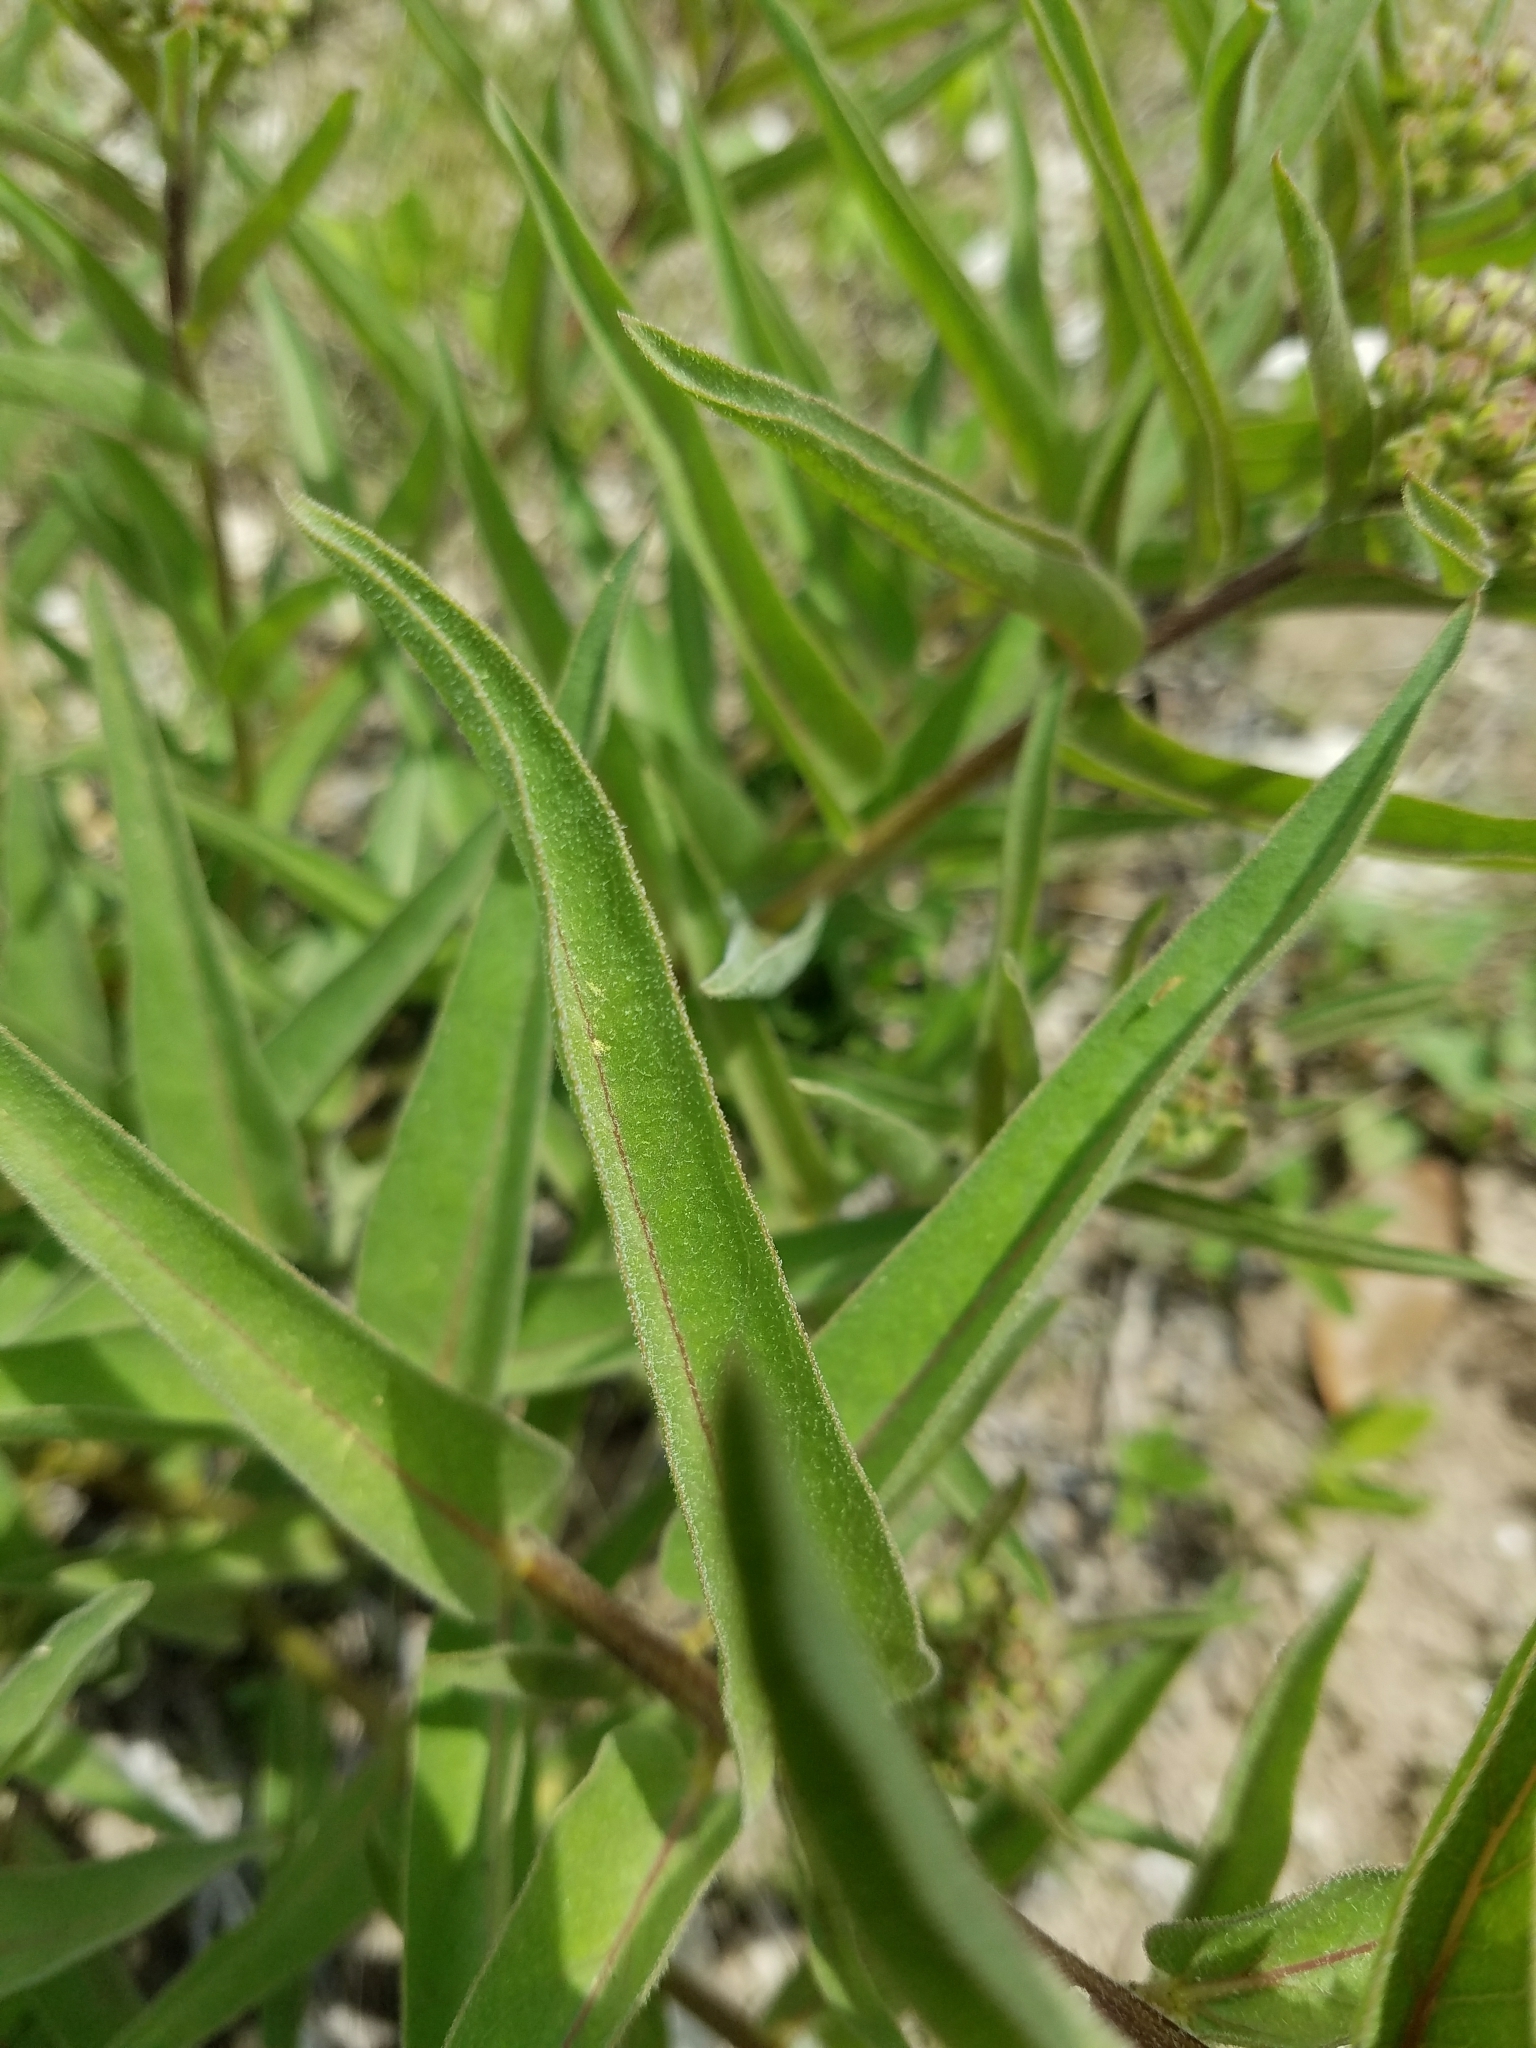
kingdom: Plantae
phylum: Tracheophyta
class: Magnoliopsida
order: Gentianales
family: Apocynaceae
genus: Asclepias
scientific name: Asclepias asperula
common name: Antelope horns
